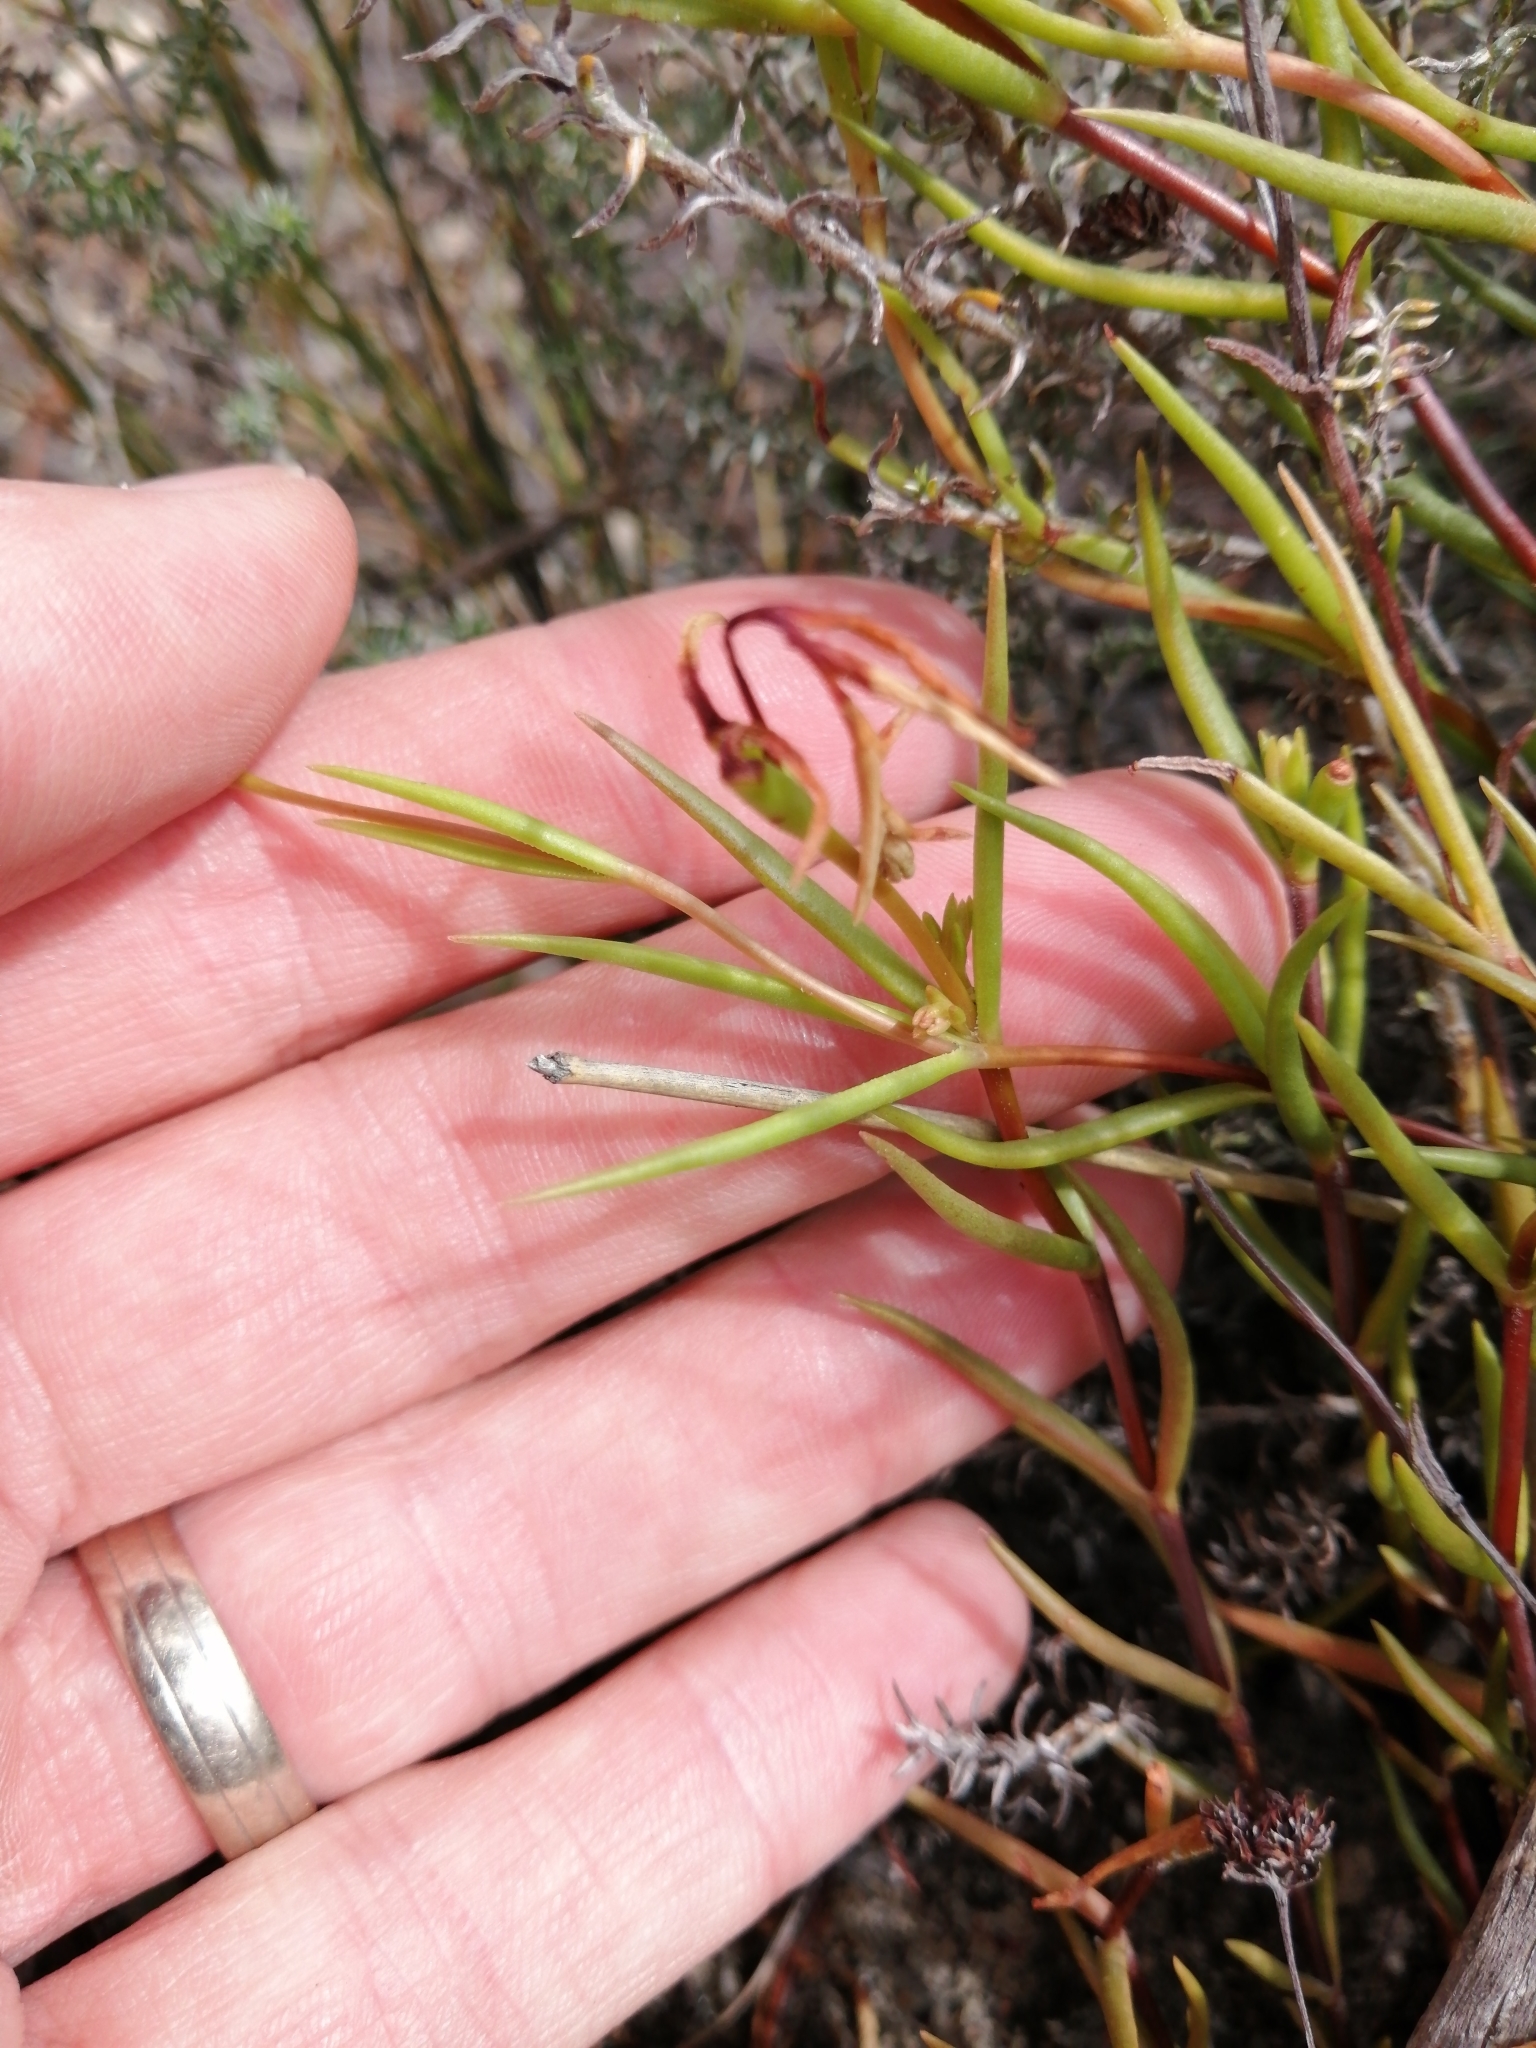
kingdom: Plantae
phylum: Tracheophyta
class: Magnoliopsida
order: Saxifragales
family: Crassulaceae
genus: Crassula
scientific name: Crassula subulata
